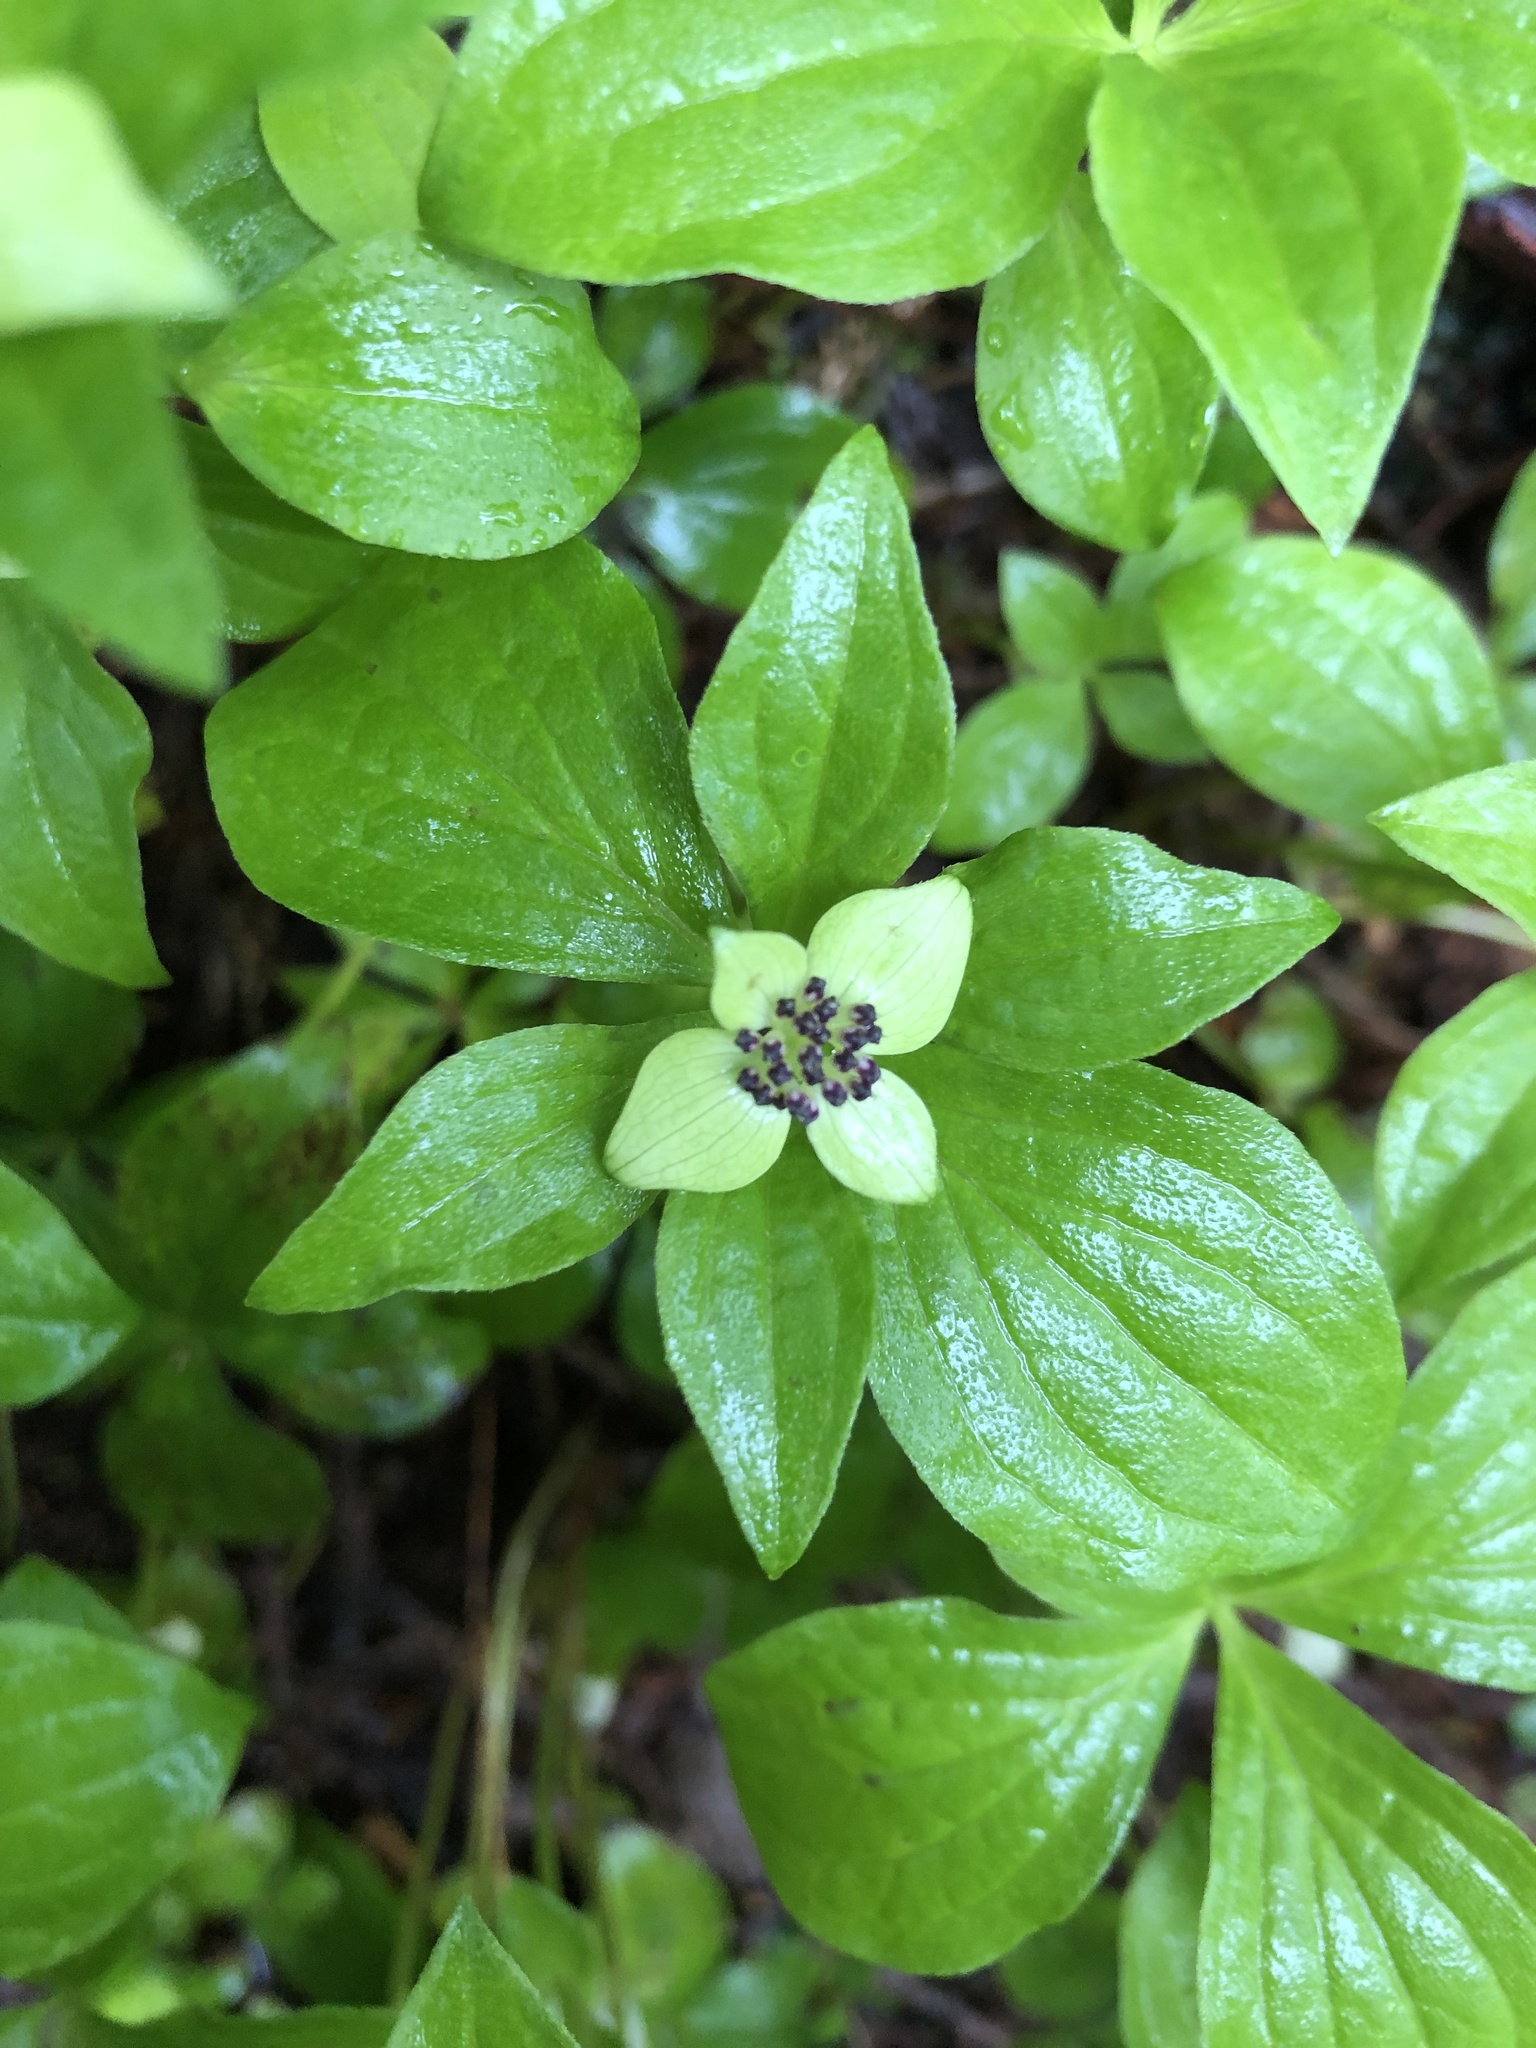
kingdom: Plantae
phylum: Tracheophyta
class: Magnoliopsida
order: Cornales
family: Cornaceae
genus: Cornus
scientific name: Cornus unalaschkensis
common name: Alaska bunchberry
